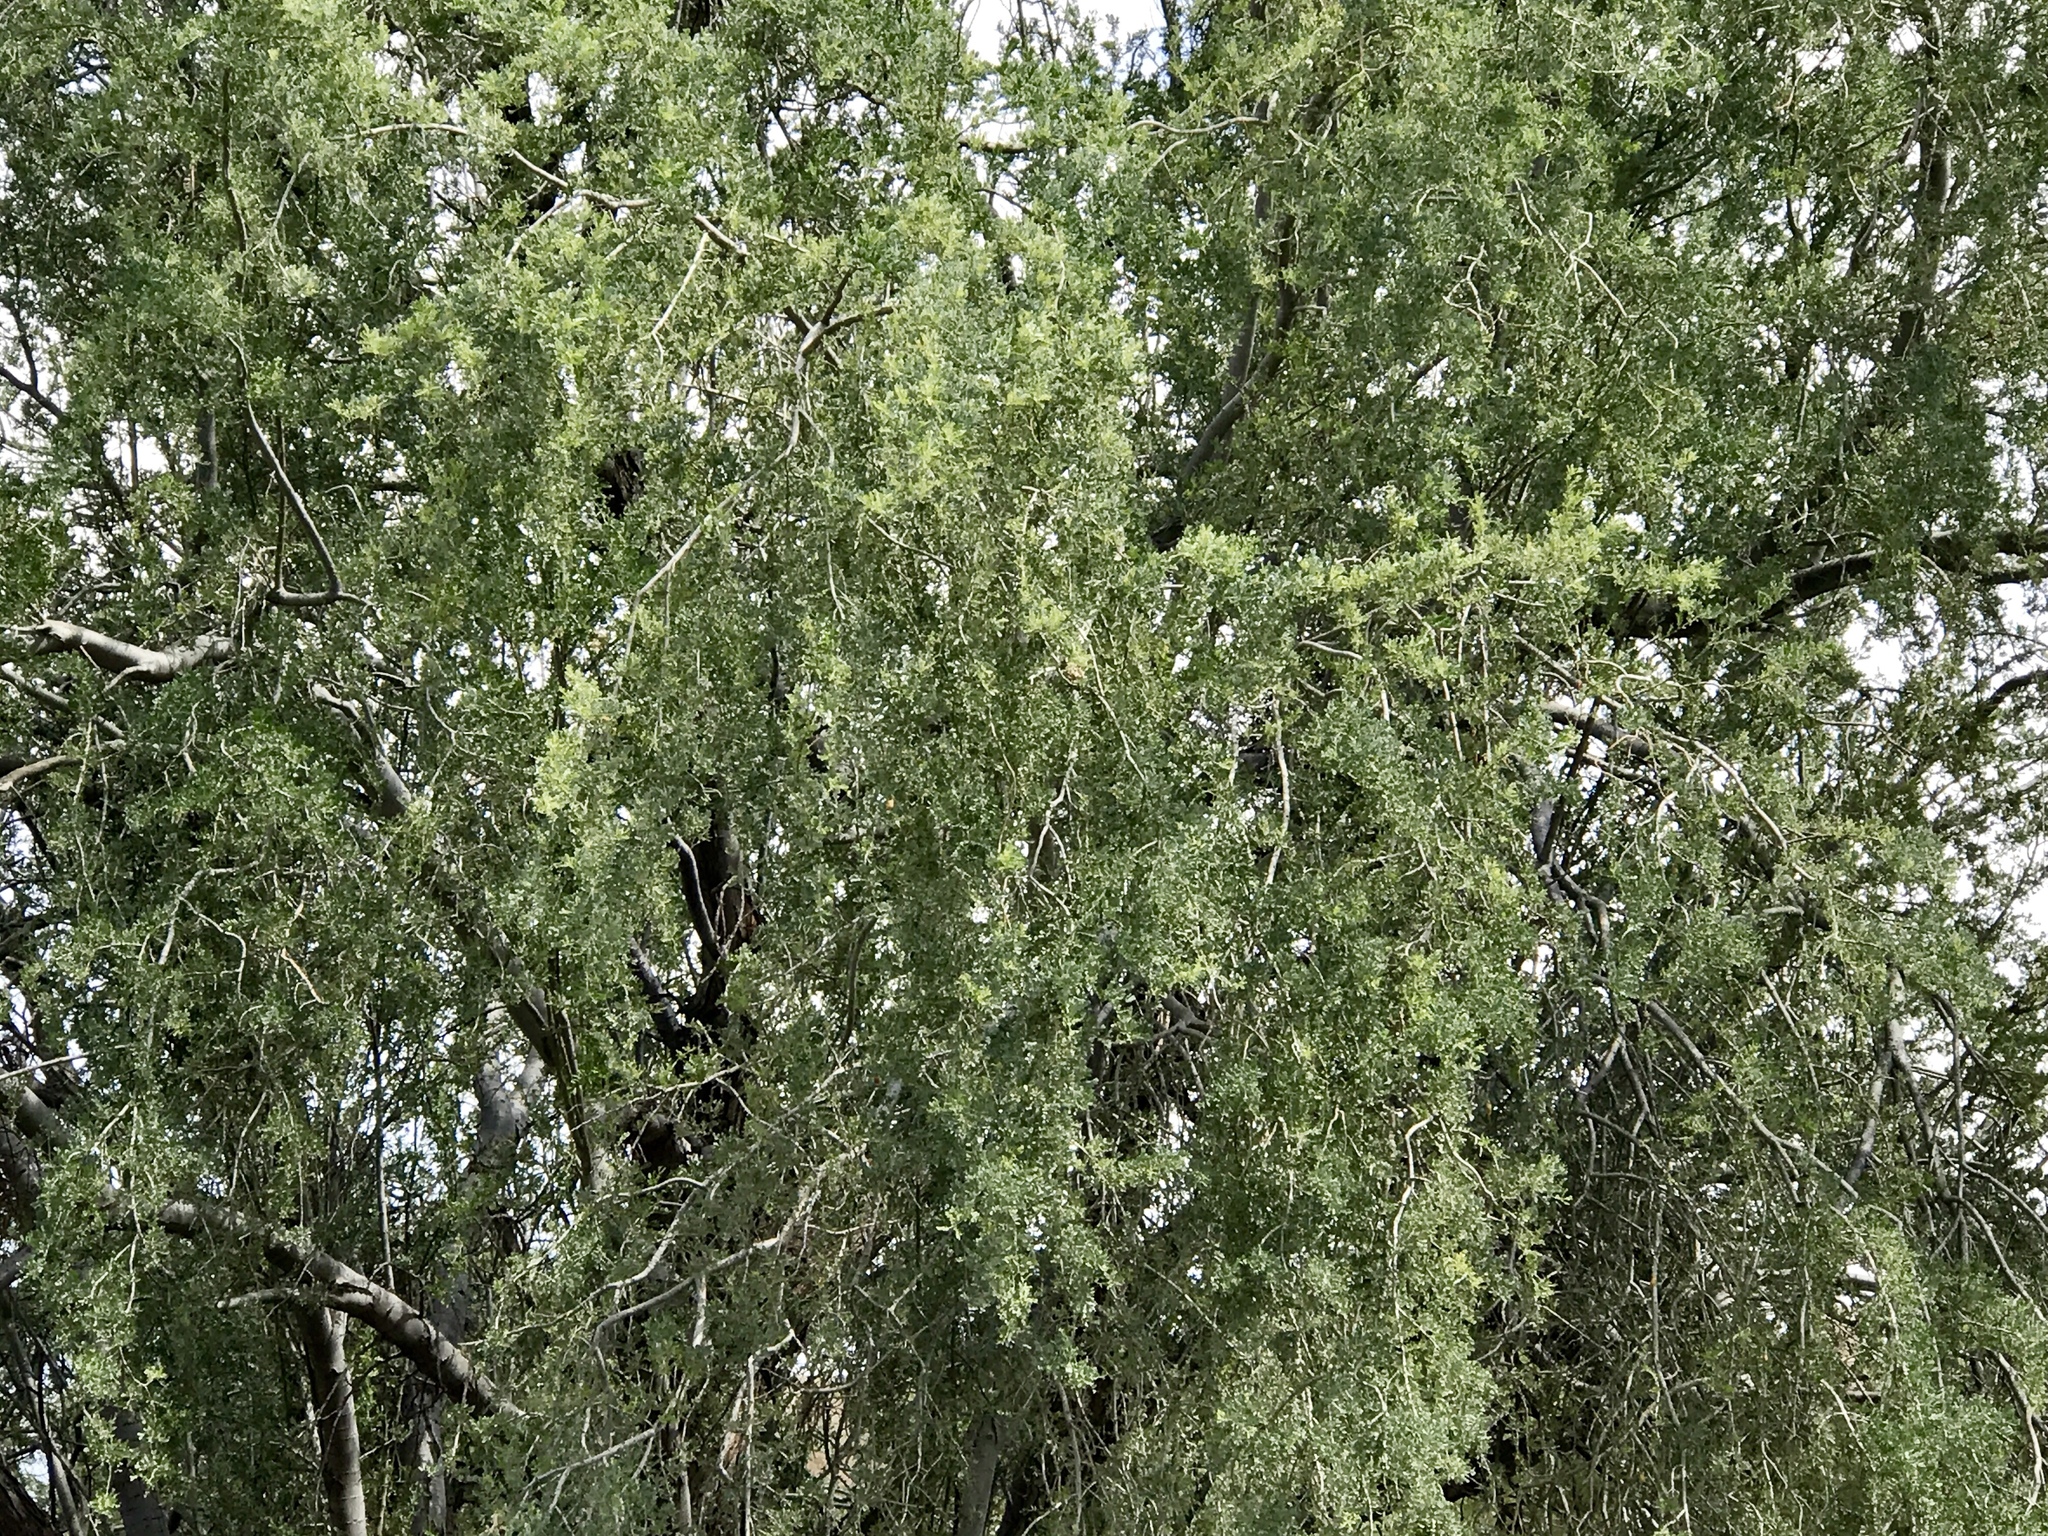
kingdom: Plantae
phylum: Tracheophyta
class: Magnoliopsida
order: Fabales
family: Fabaceae
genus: Olneya
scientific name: Olneya tesota
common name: Desert ironwood
